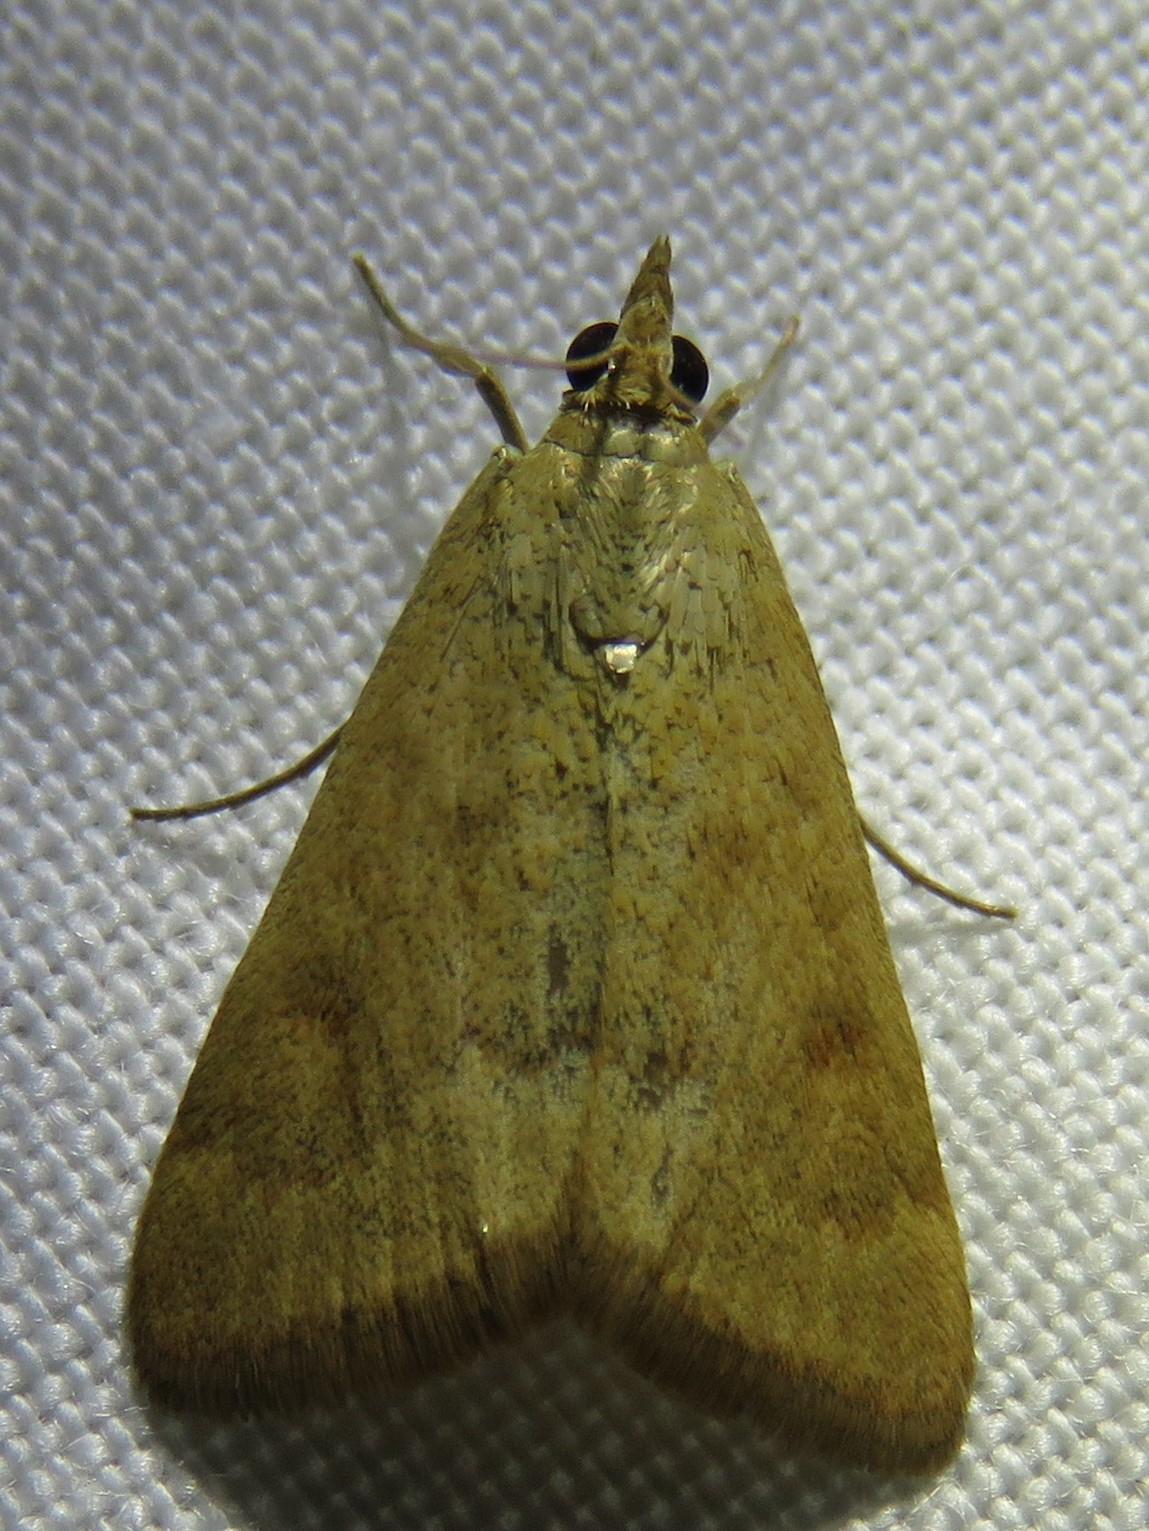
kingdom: Animalia
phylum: Arthropoda
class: Insecta
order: Lepidoptera
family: Crambidae
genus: Achyra
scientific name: Achyra rantalis
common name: Garden webworm
